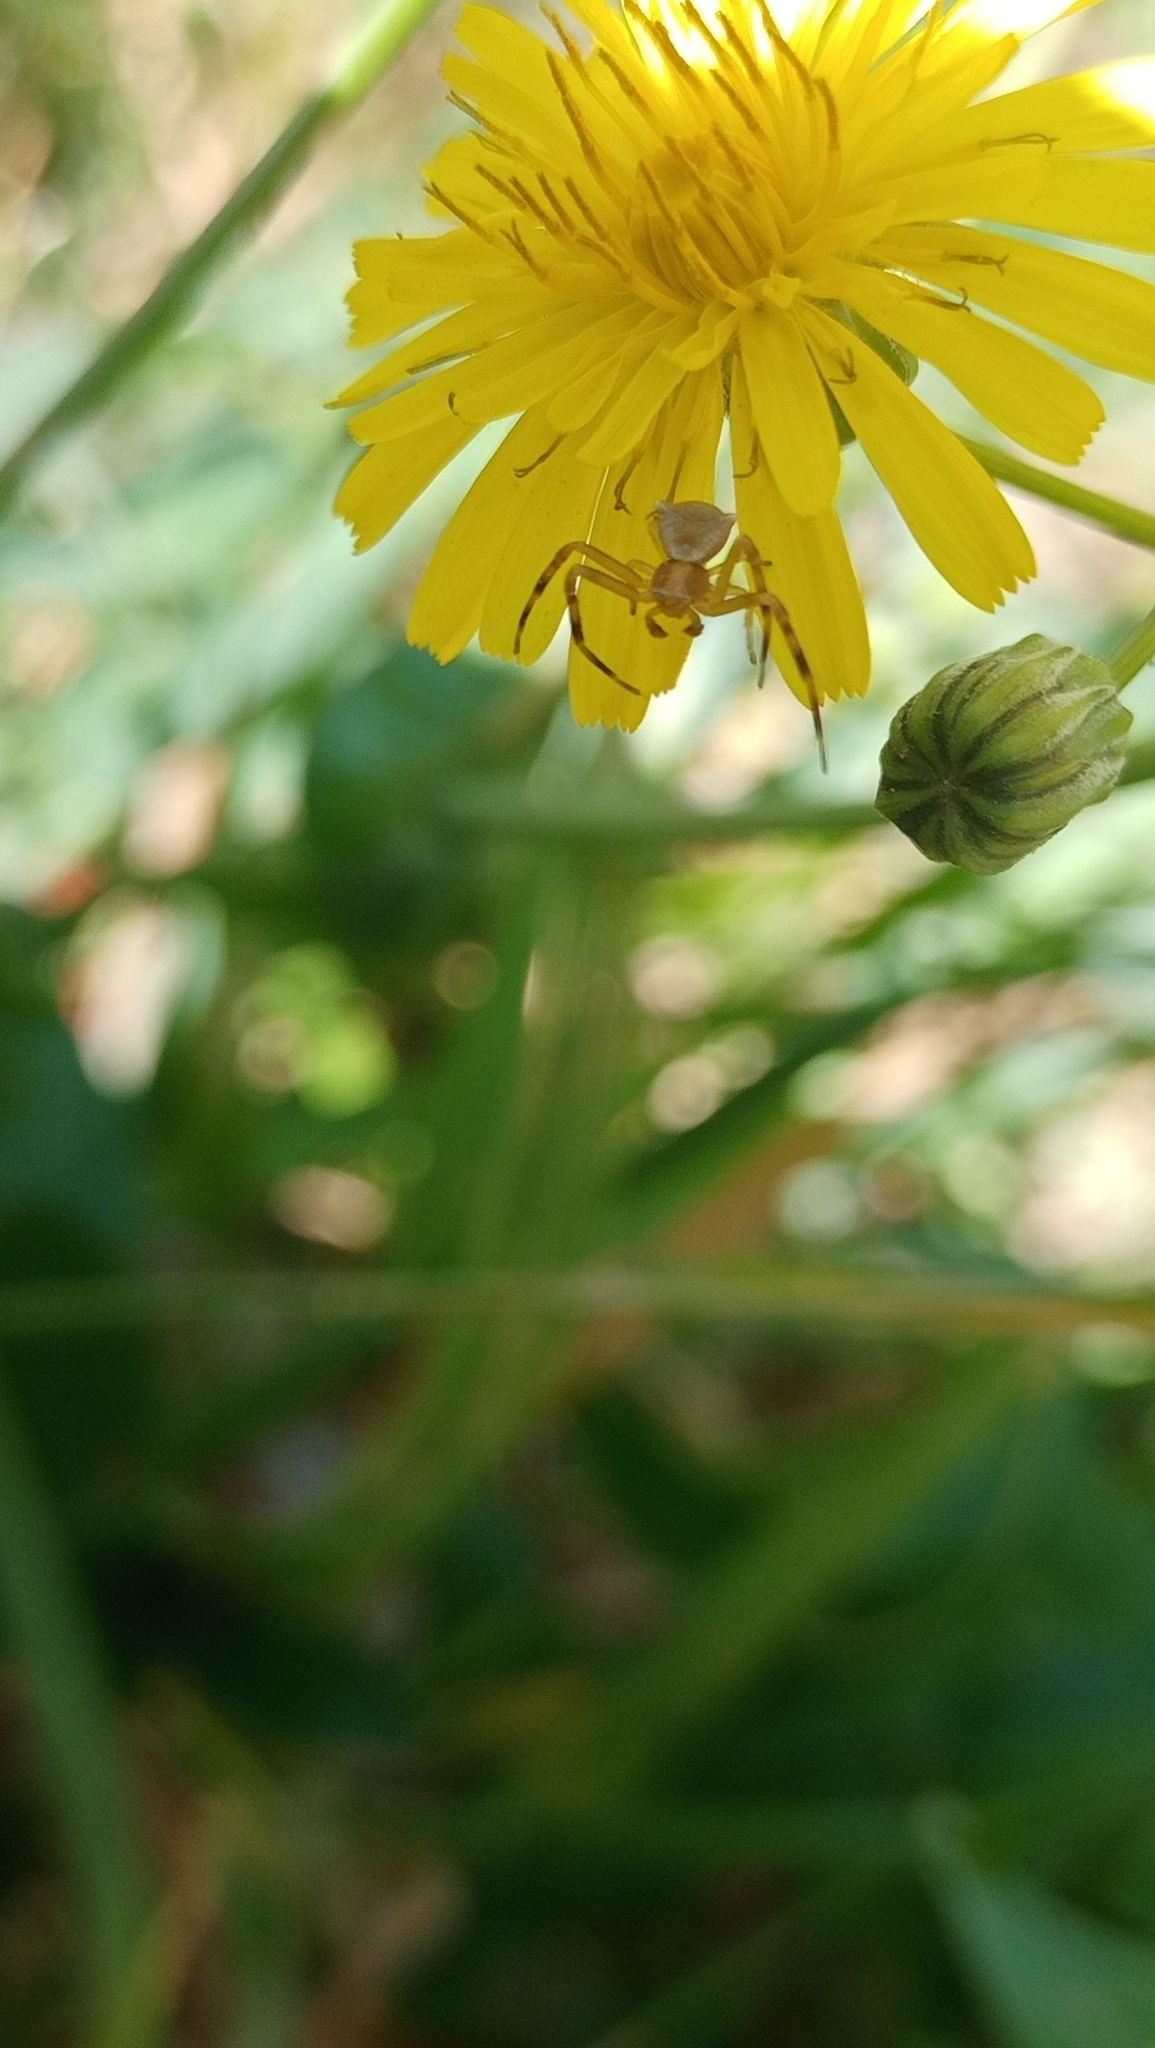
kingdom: Animalia
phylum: Arthropoda
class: Arachnida
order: Araneae
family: Thomisidae
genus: Thomisus
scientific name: Thomisus onustus
